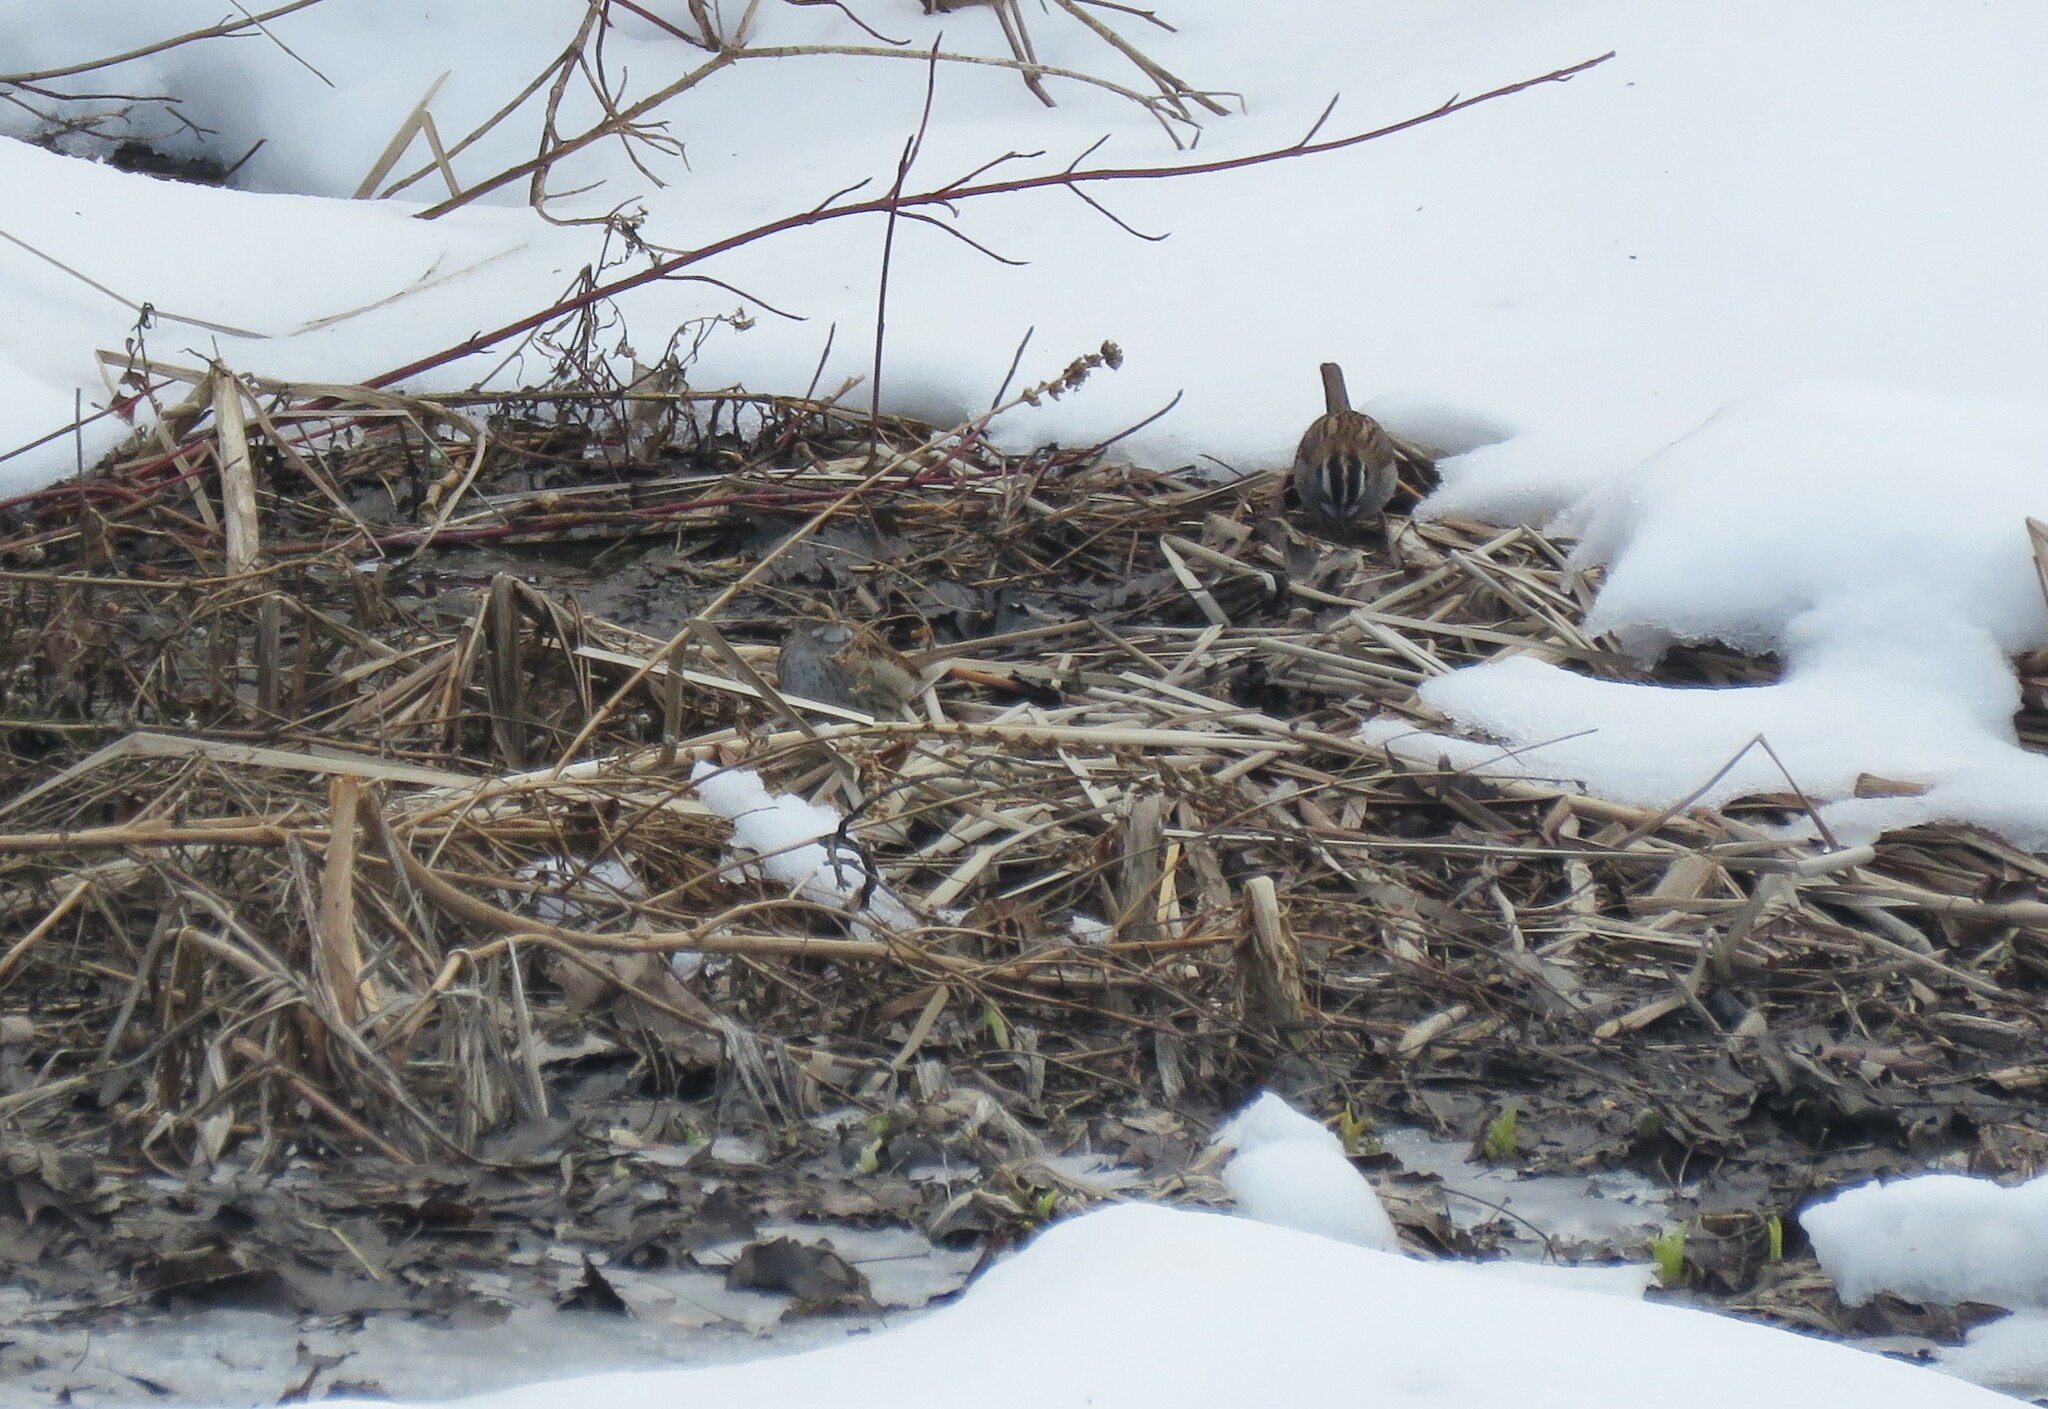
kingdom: Animalia
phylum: Chordata
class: Aves
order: Passeriformes
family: Passerellidae
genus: Zonotrichia
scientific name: Zonotrichia albicollis
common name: White-throated sparrow
